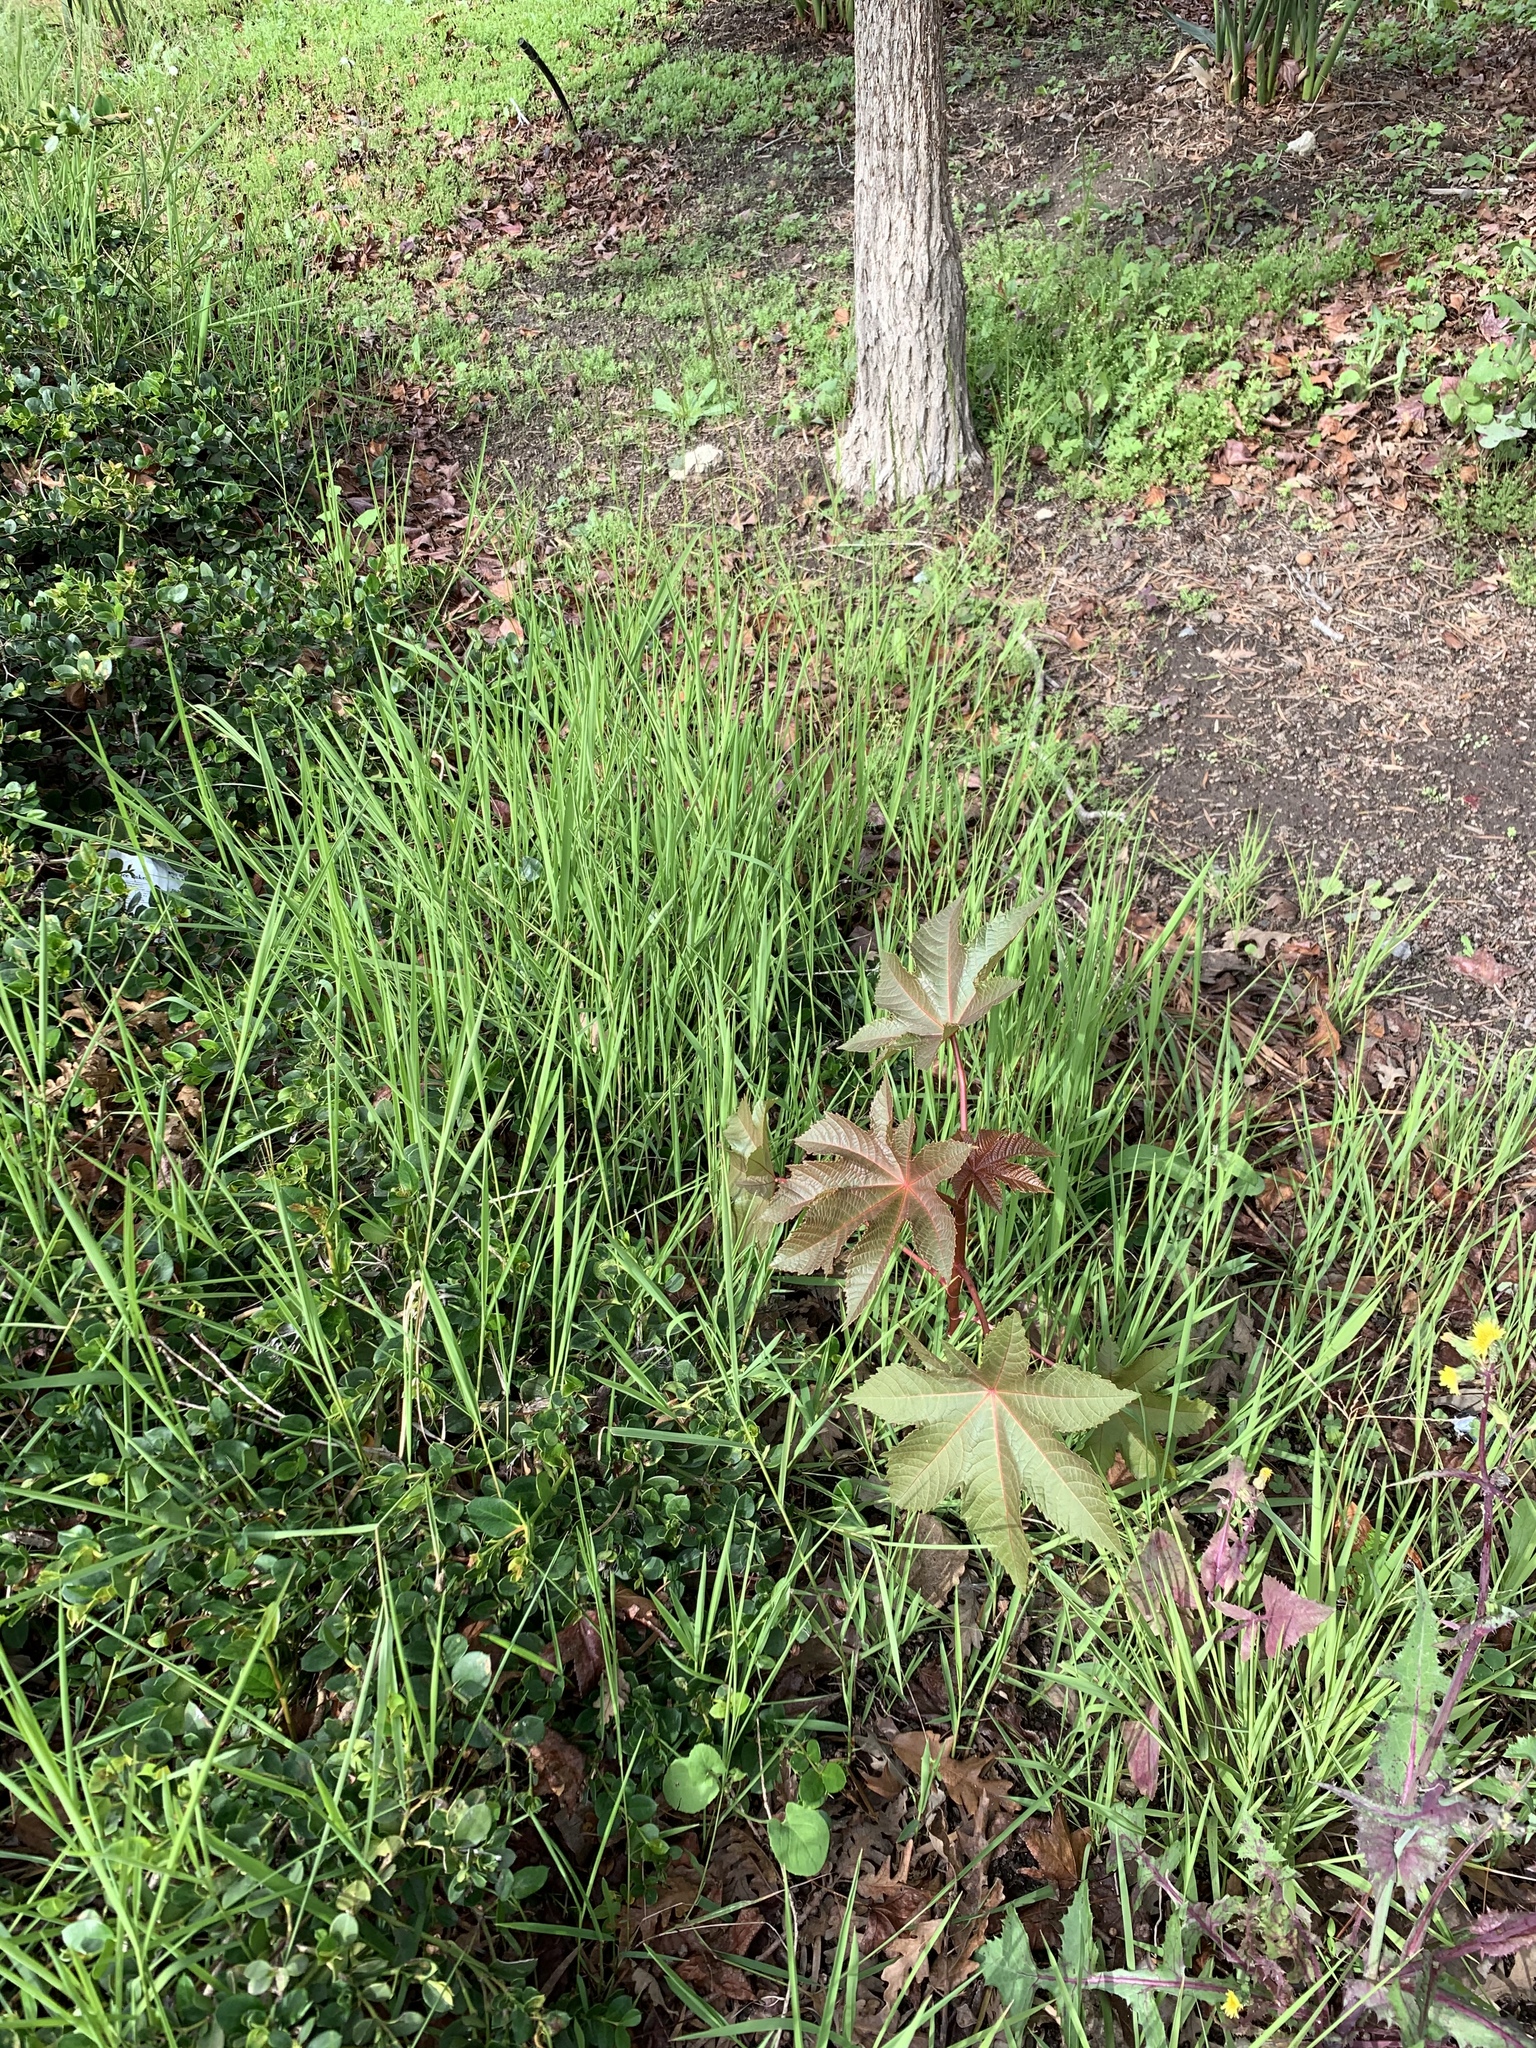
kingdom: Plantae
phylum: Tracheophyta
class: Magnoliopsida
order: Malpighiales
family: Euphorbiaceae
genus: Ricinus
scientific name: Ricinus communis
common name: Castor-oil-plant
